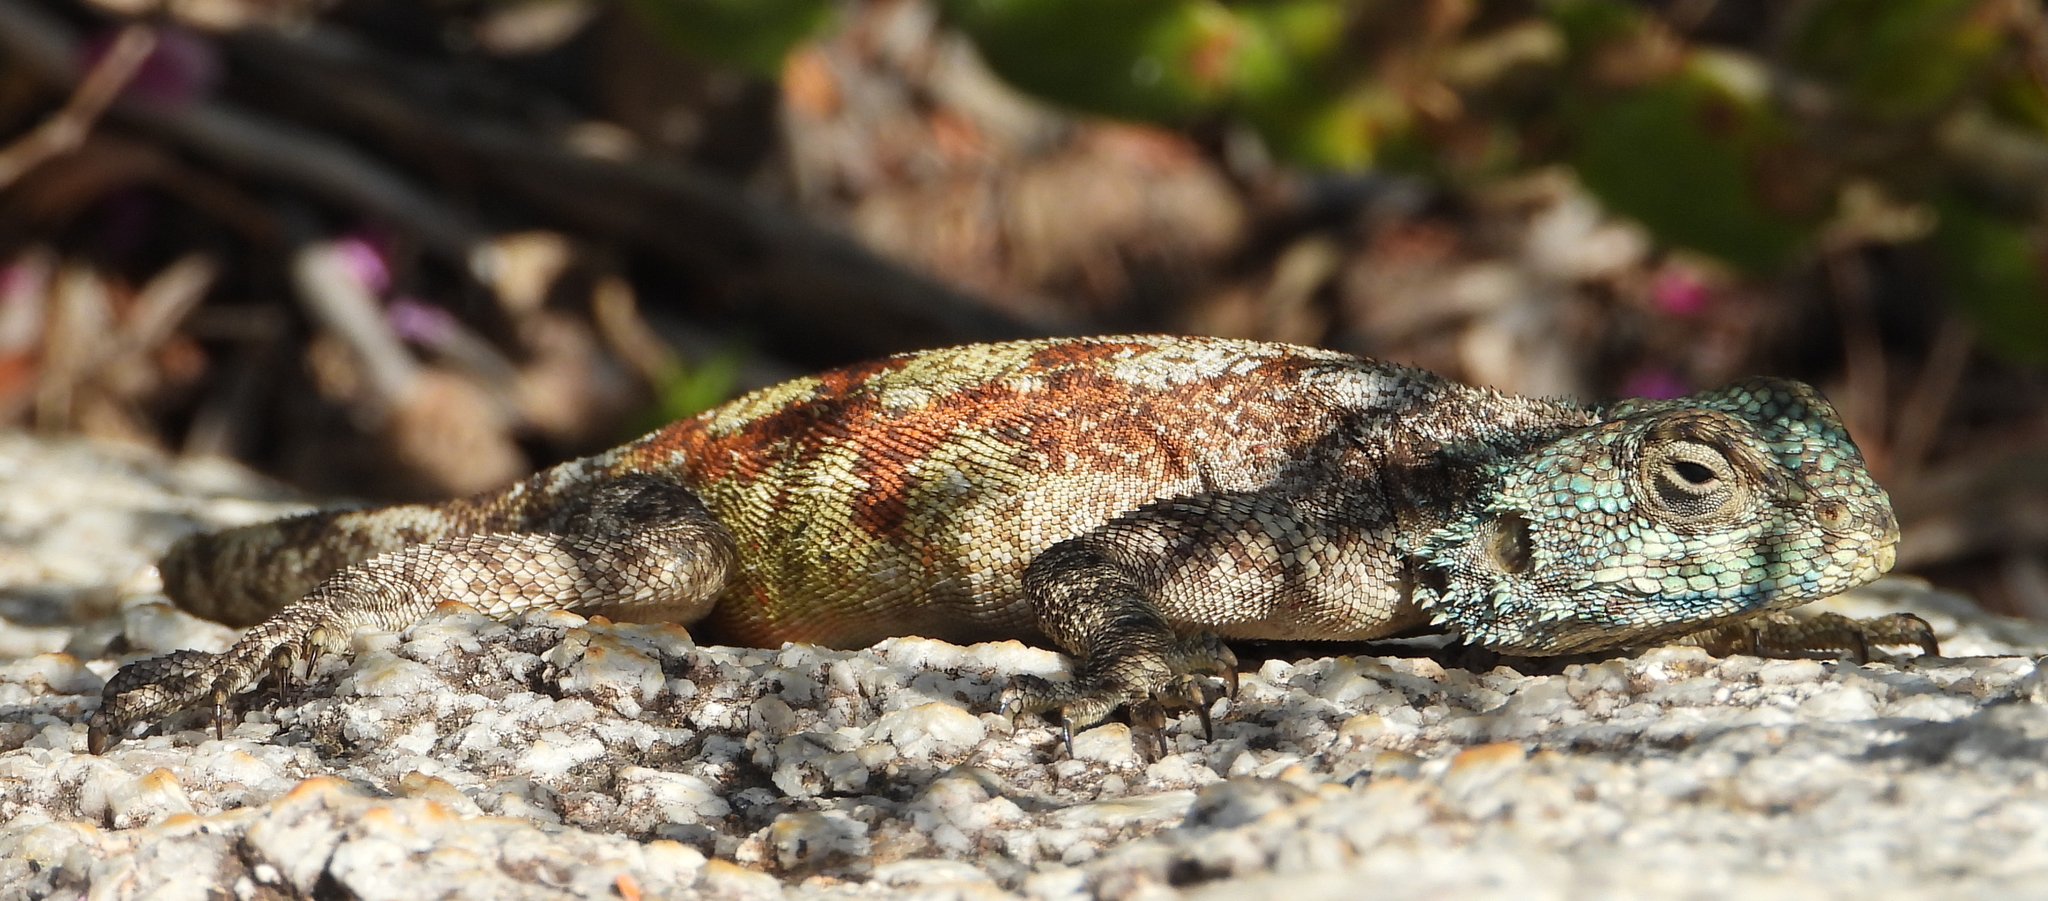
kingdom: Animalia
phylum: Chordata
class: Squamata
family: Agamidae
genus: Agama
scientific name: Agama atra
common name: Southern african rock agama
